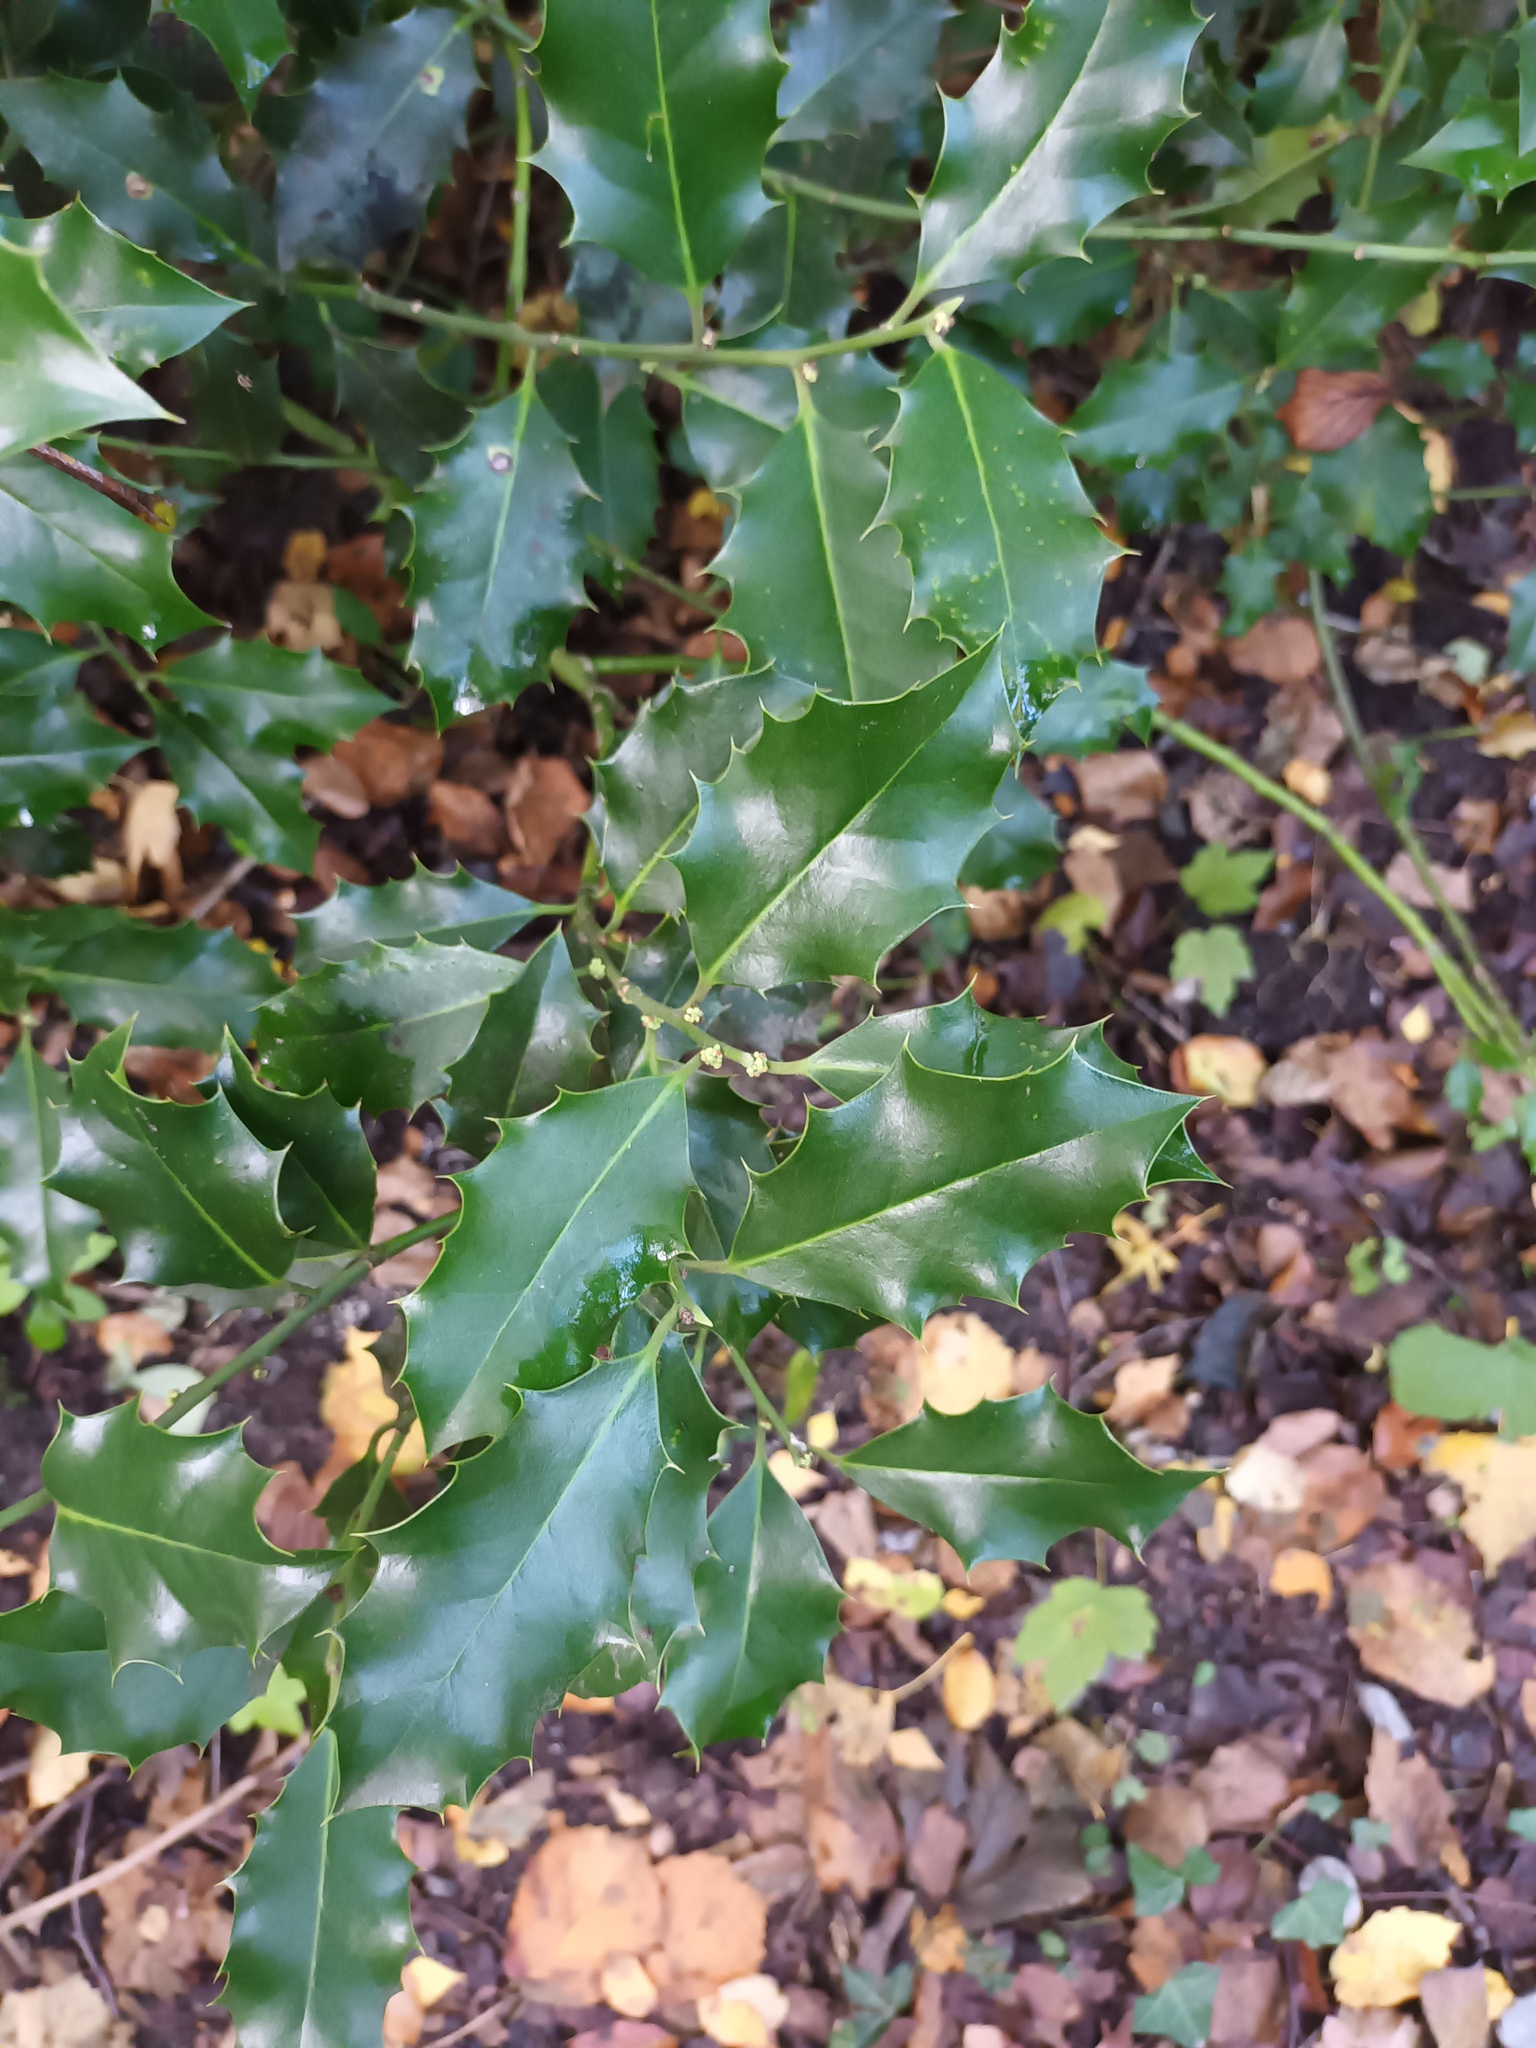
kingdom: Plantae
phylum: Tracheophyta
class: Magnoliopsida
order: Aquifoliales
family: Aquifoliaceae
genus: Ilex
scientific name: Ilex aquifolium
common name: English holly
